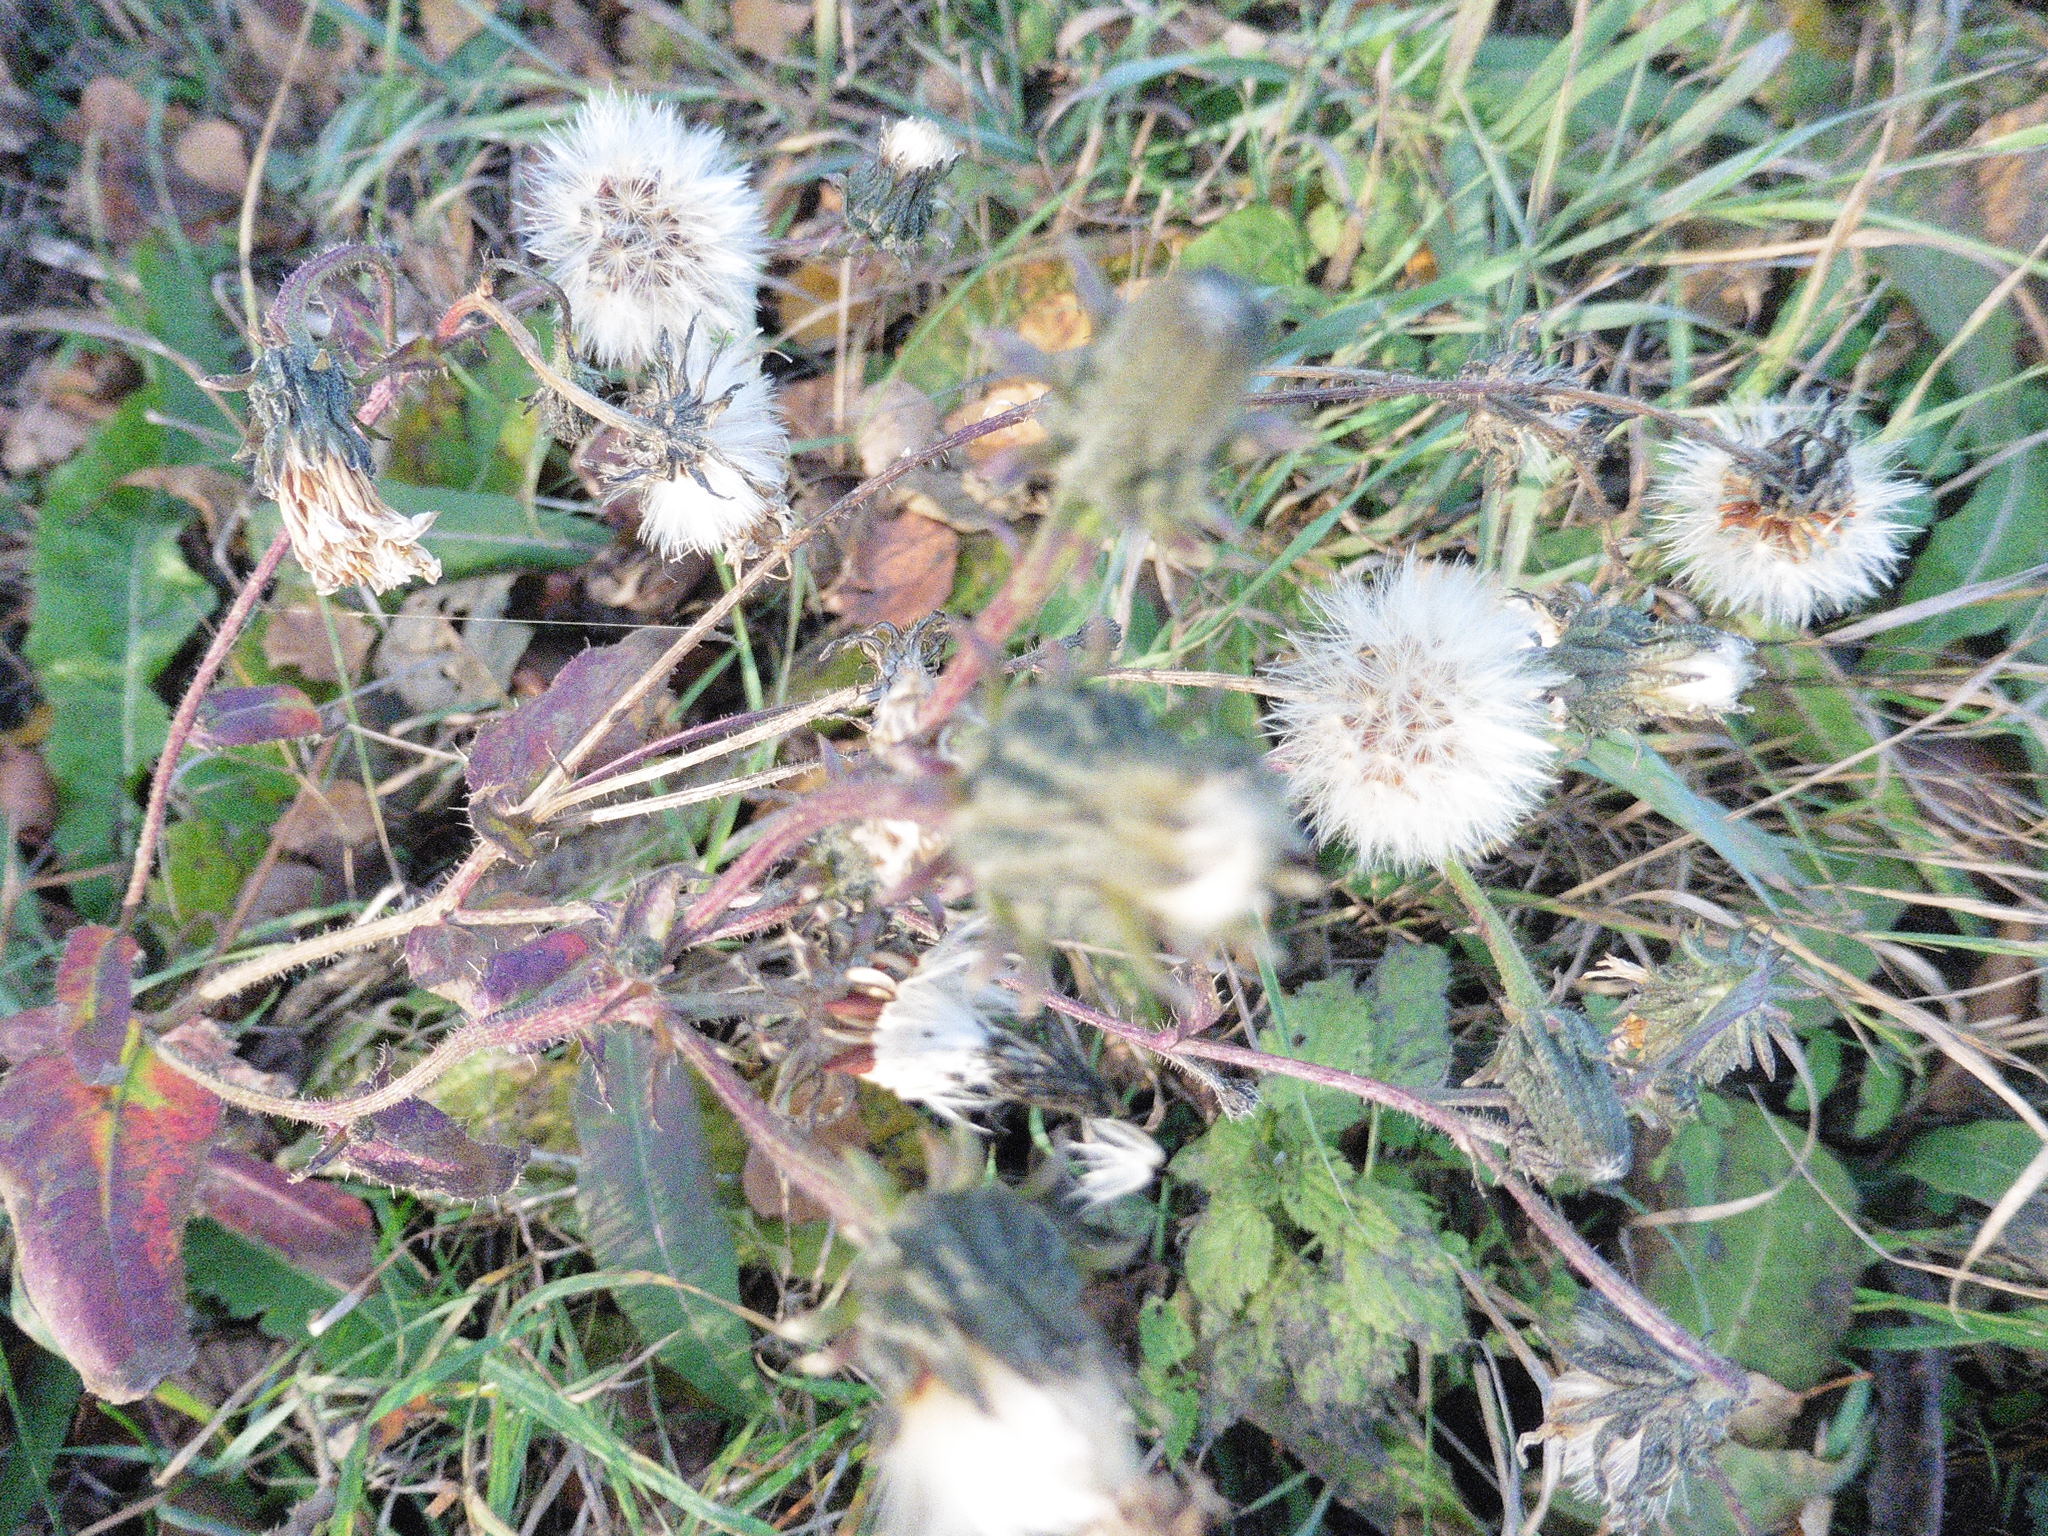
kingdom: Plantae
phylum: Tracheophyta
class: Magnoliopsida
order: Asterales
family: Asteraceae
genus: Picris
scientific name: Picris hieracioides
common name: Hawkweed oxtongue
